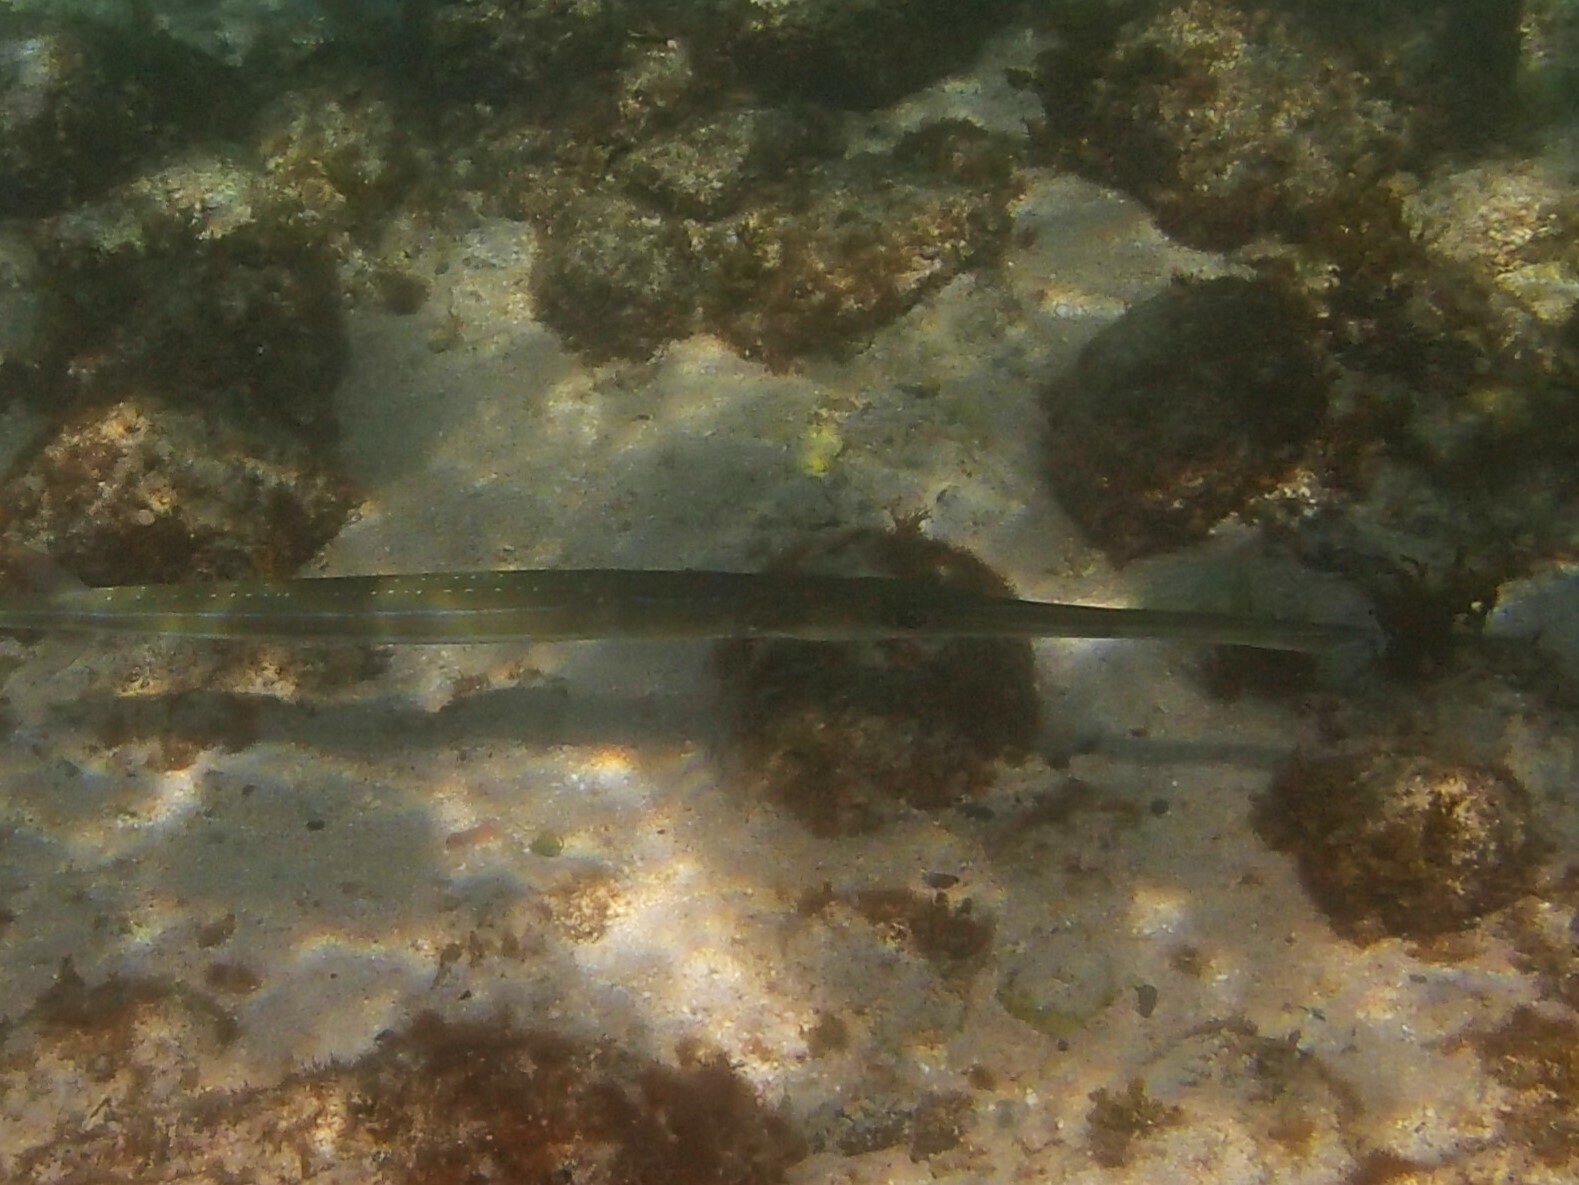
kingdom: Animalia
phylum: Chordata
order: Syngnathiformes
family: Fistulariidae
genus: Fistularia
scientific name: Fistularia commersonii
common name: Bluespotted cornetfish
